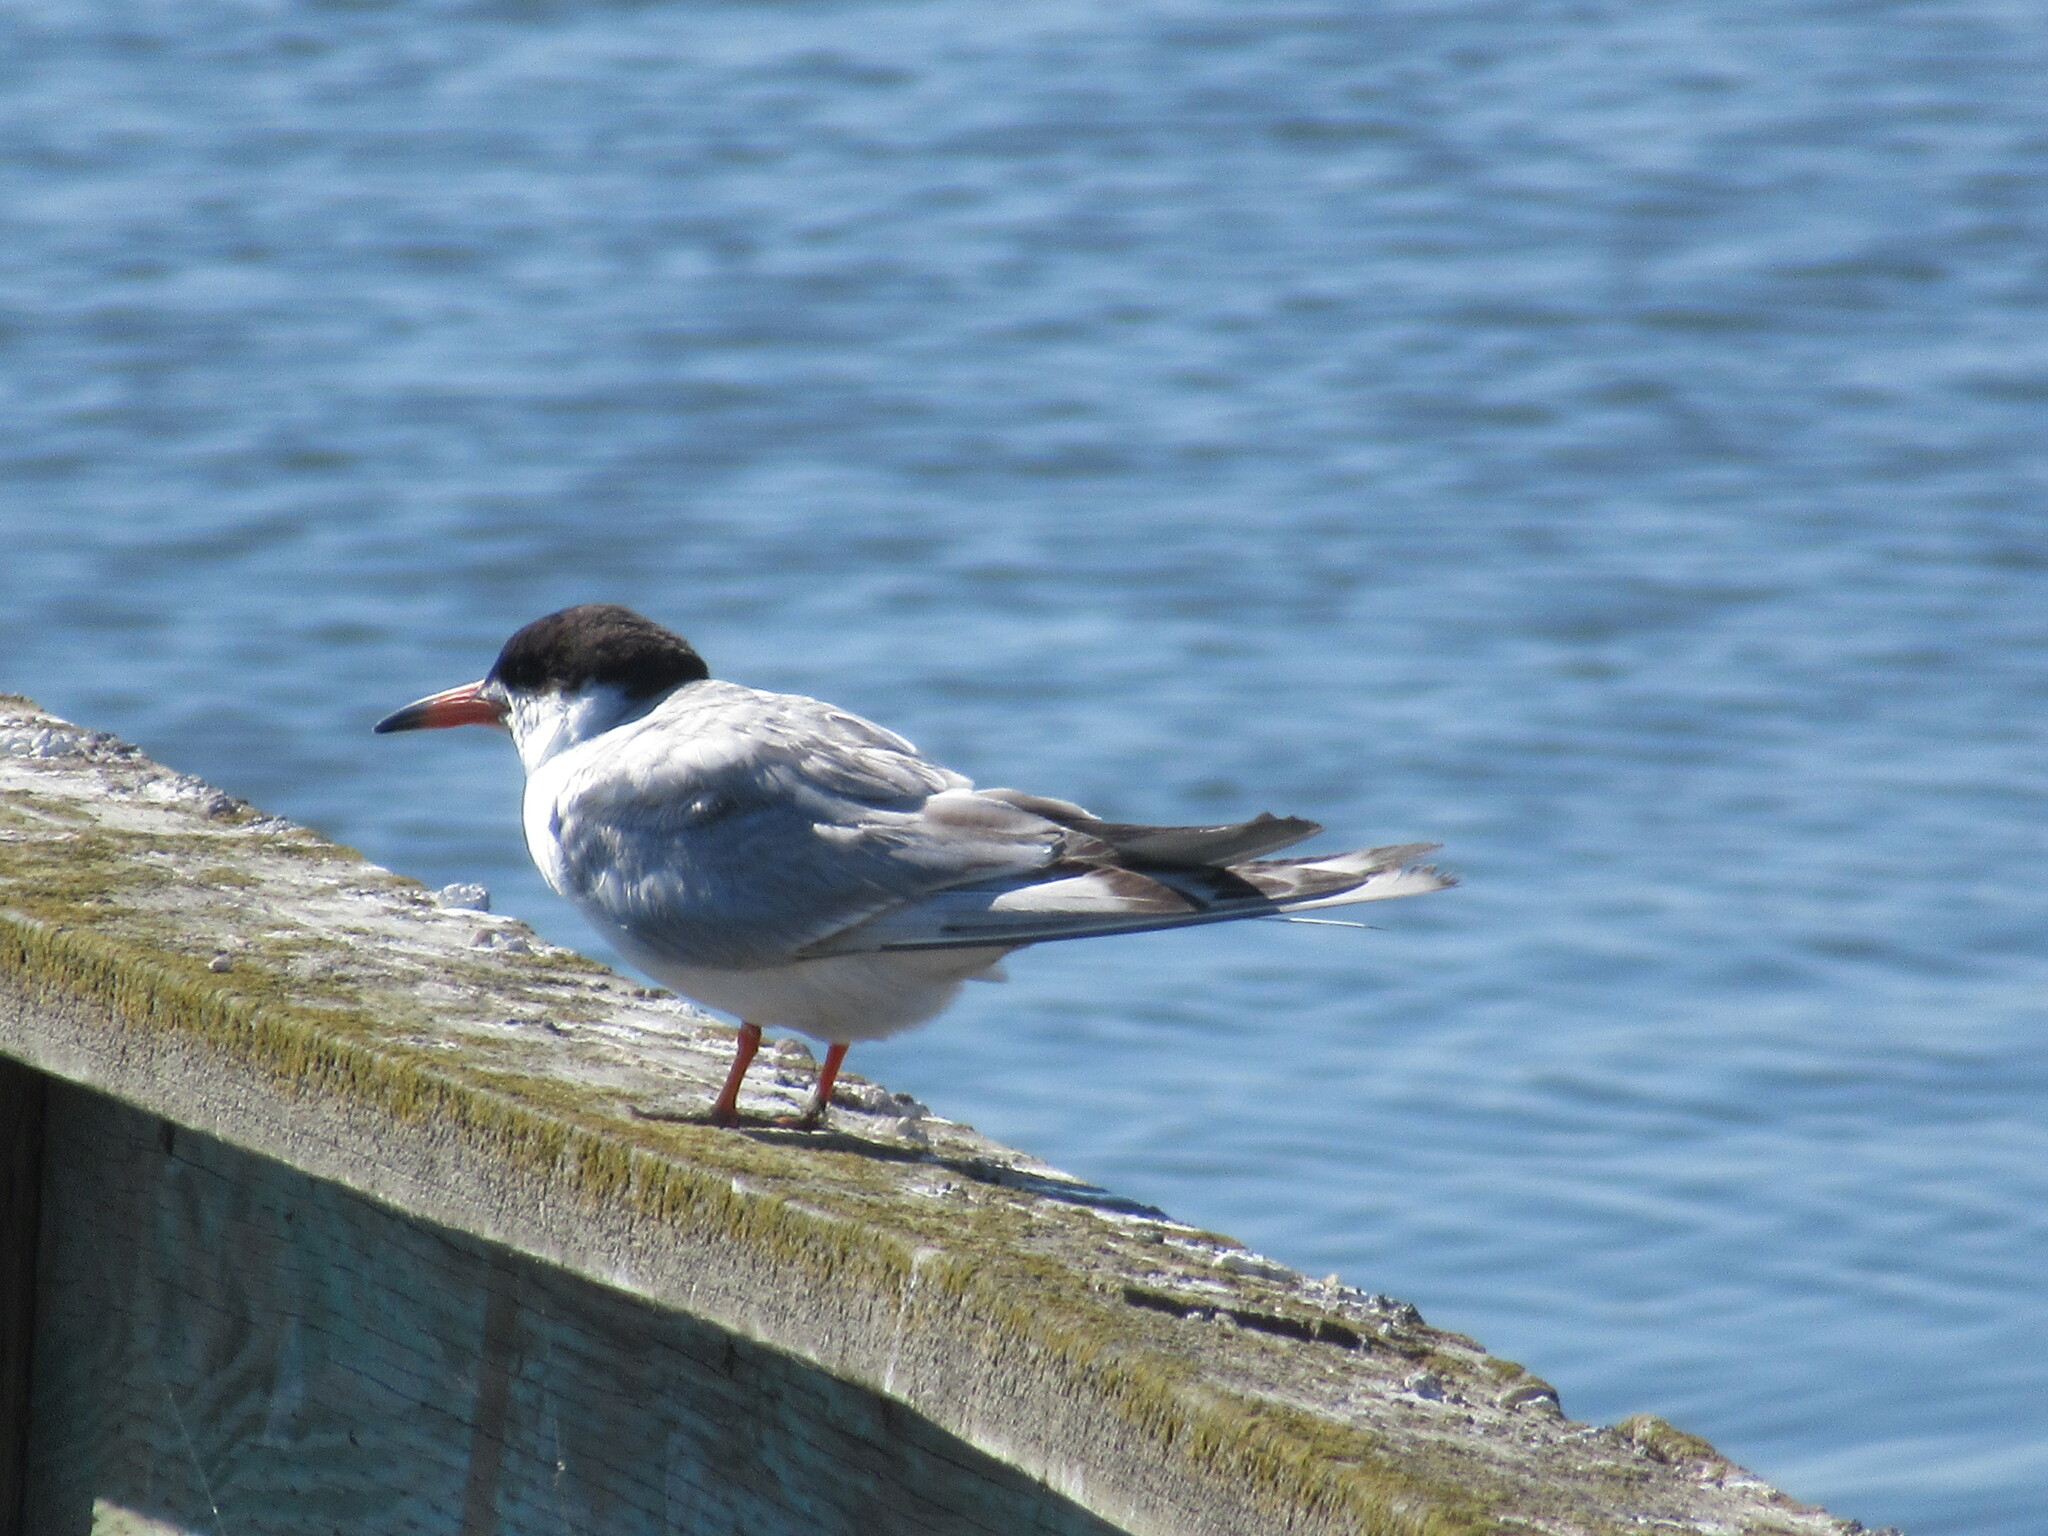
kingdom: Animalia
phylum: Chordata
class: Aves
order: Charadriiformes
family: Laridae
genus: Sterna
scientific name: Sterna forsteri
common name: Forster's tern
